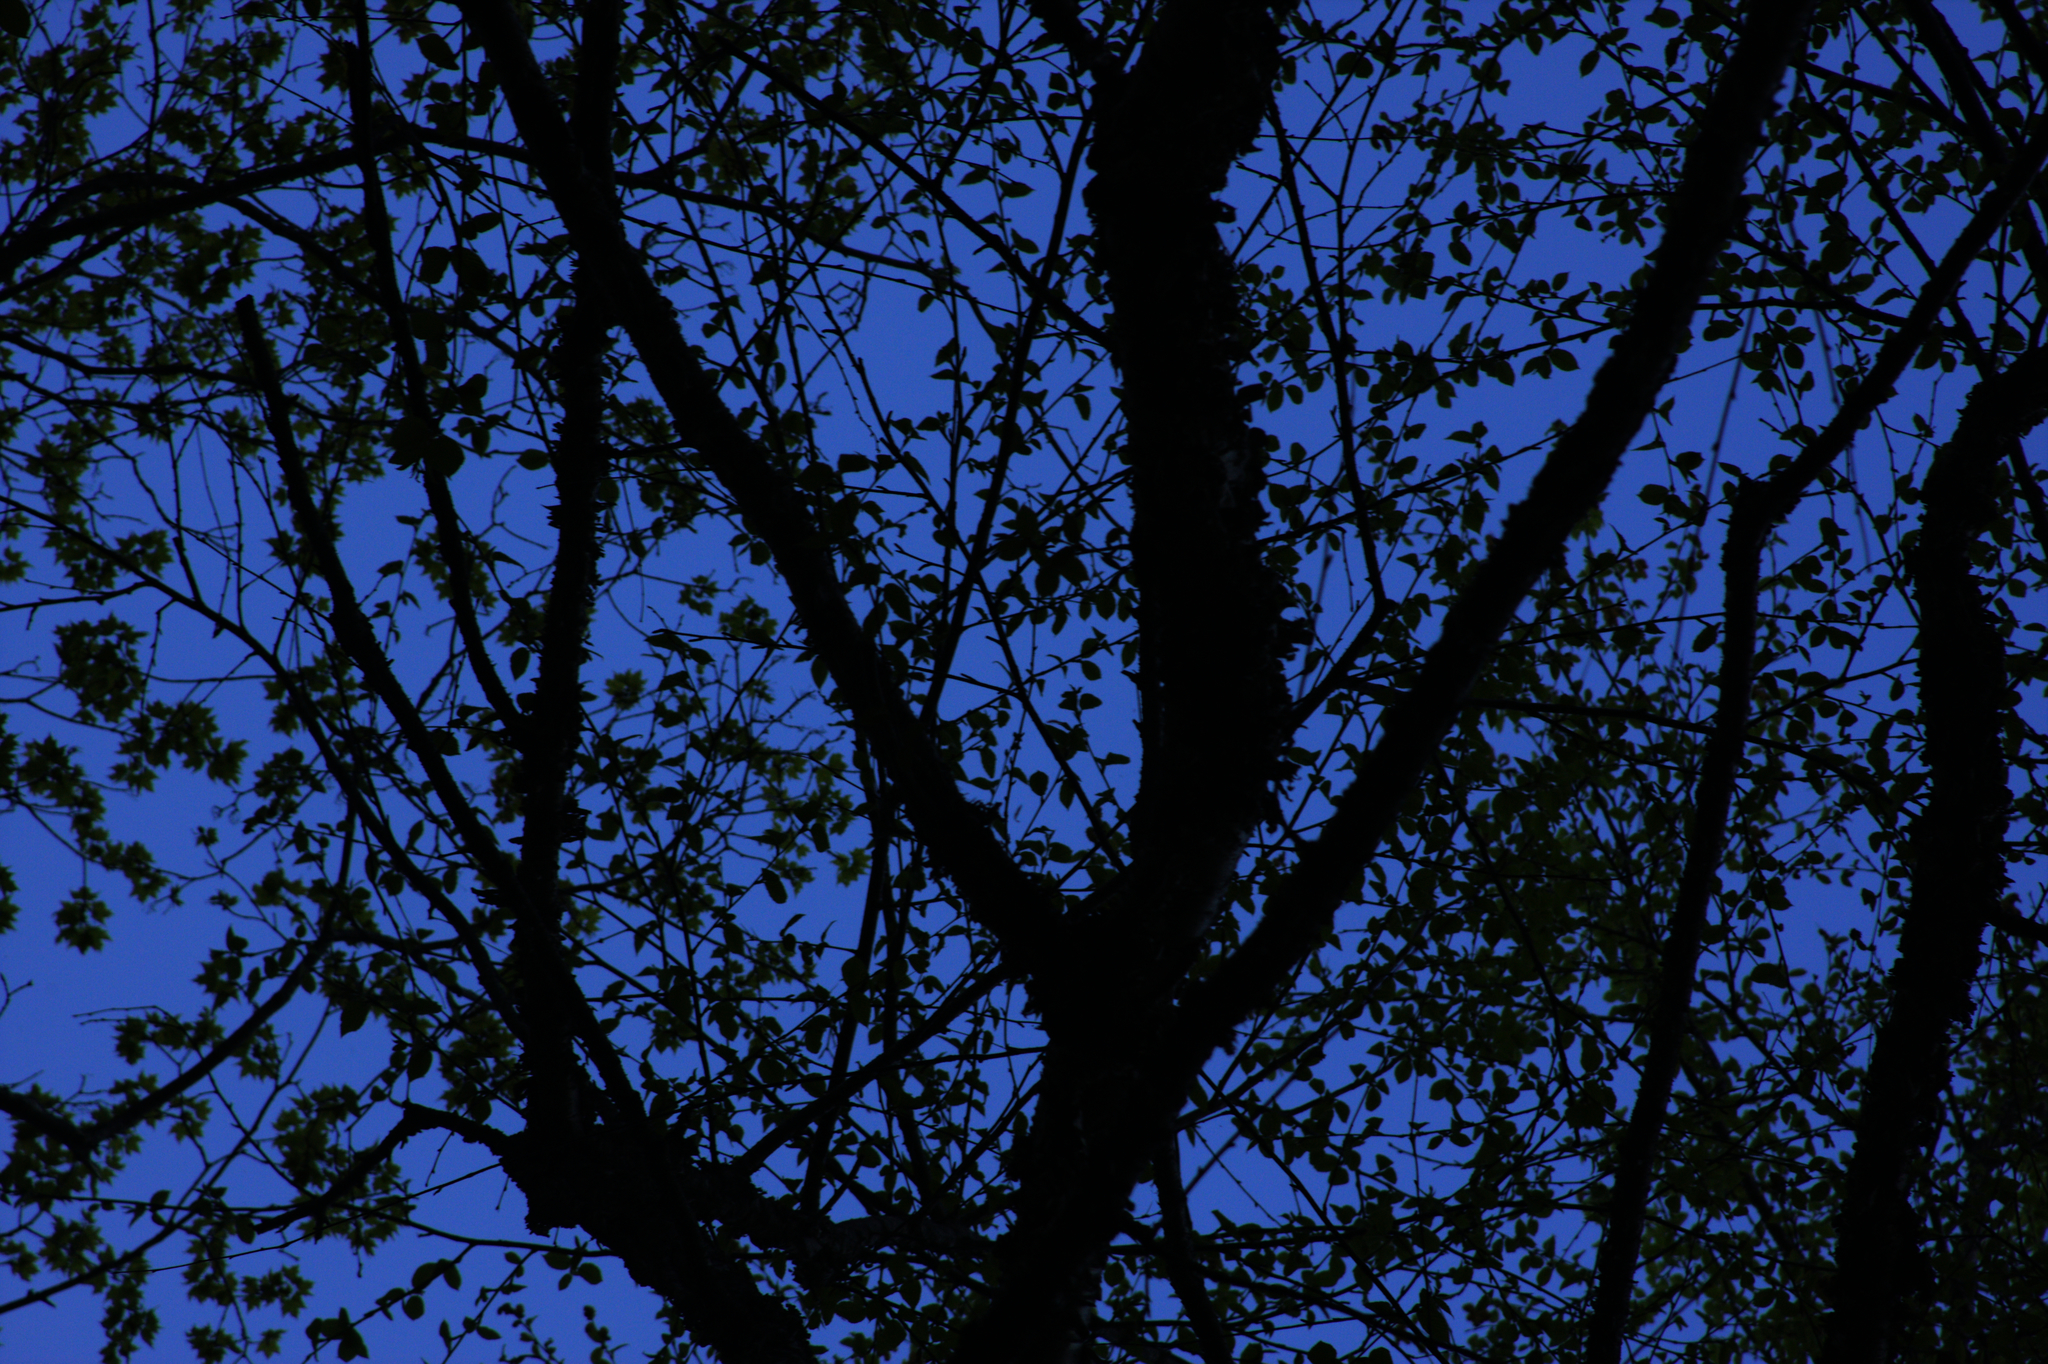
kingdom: Plantae
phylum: Tracheophyta
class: Magnoliopsida
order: Fagales
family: Betulaceae
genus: Betula
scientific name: Betula alleghaniensis
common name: Yellow birch
